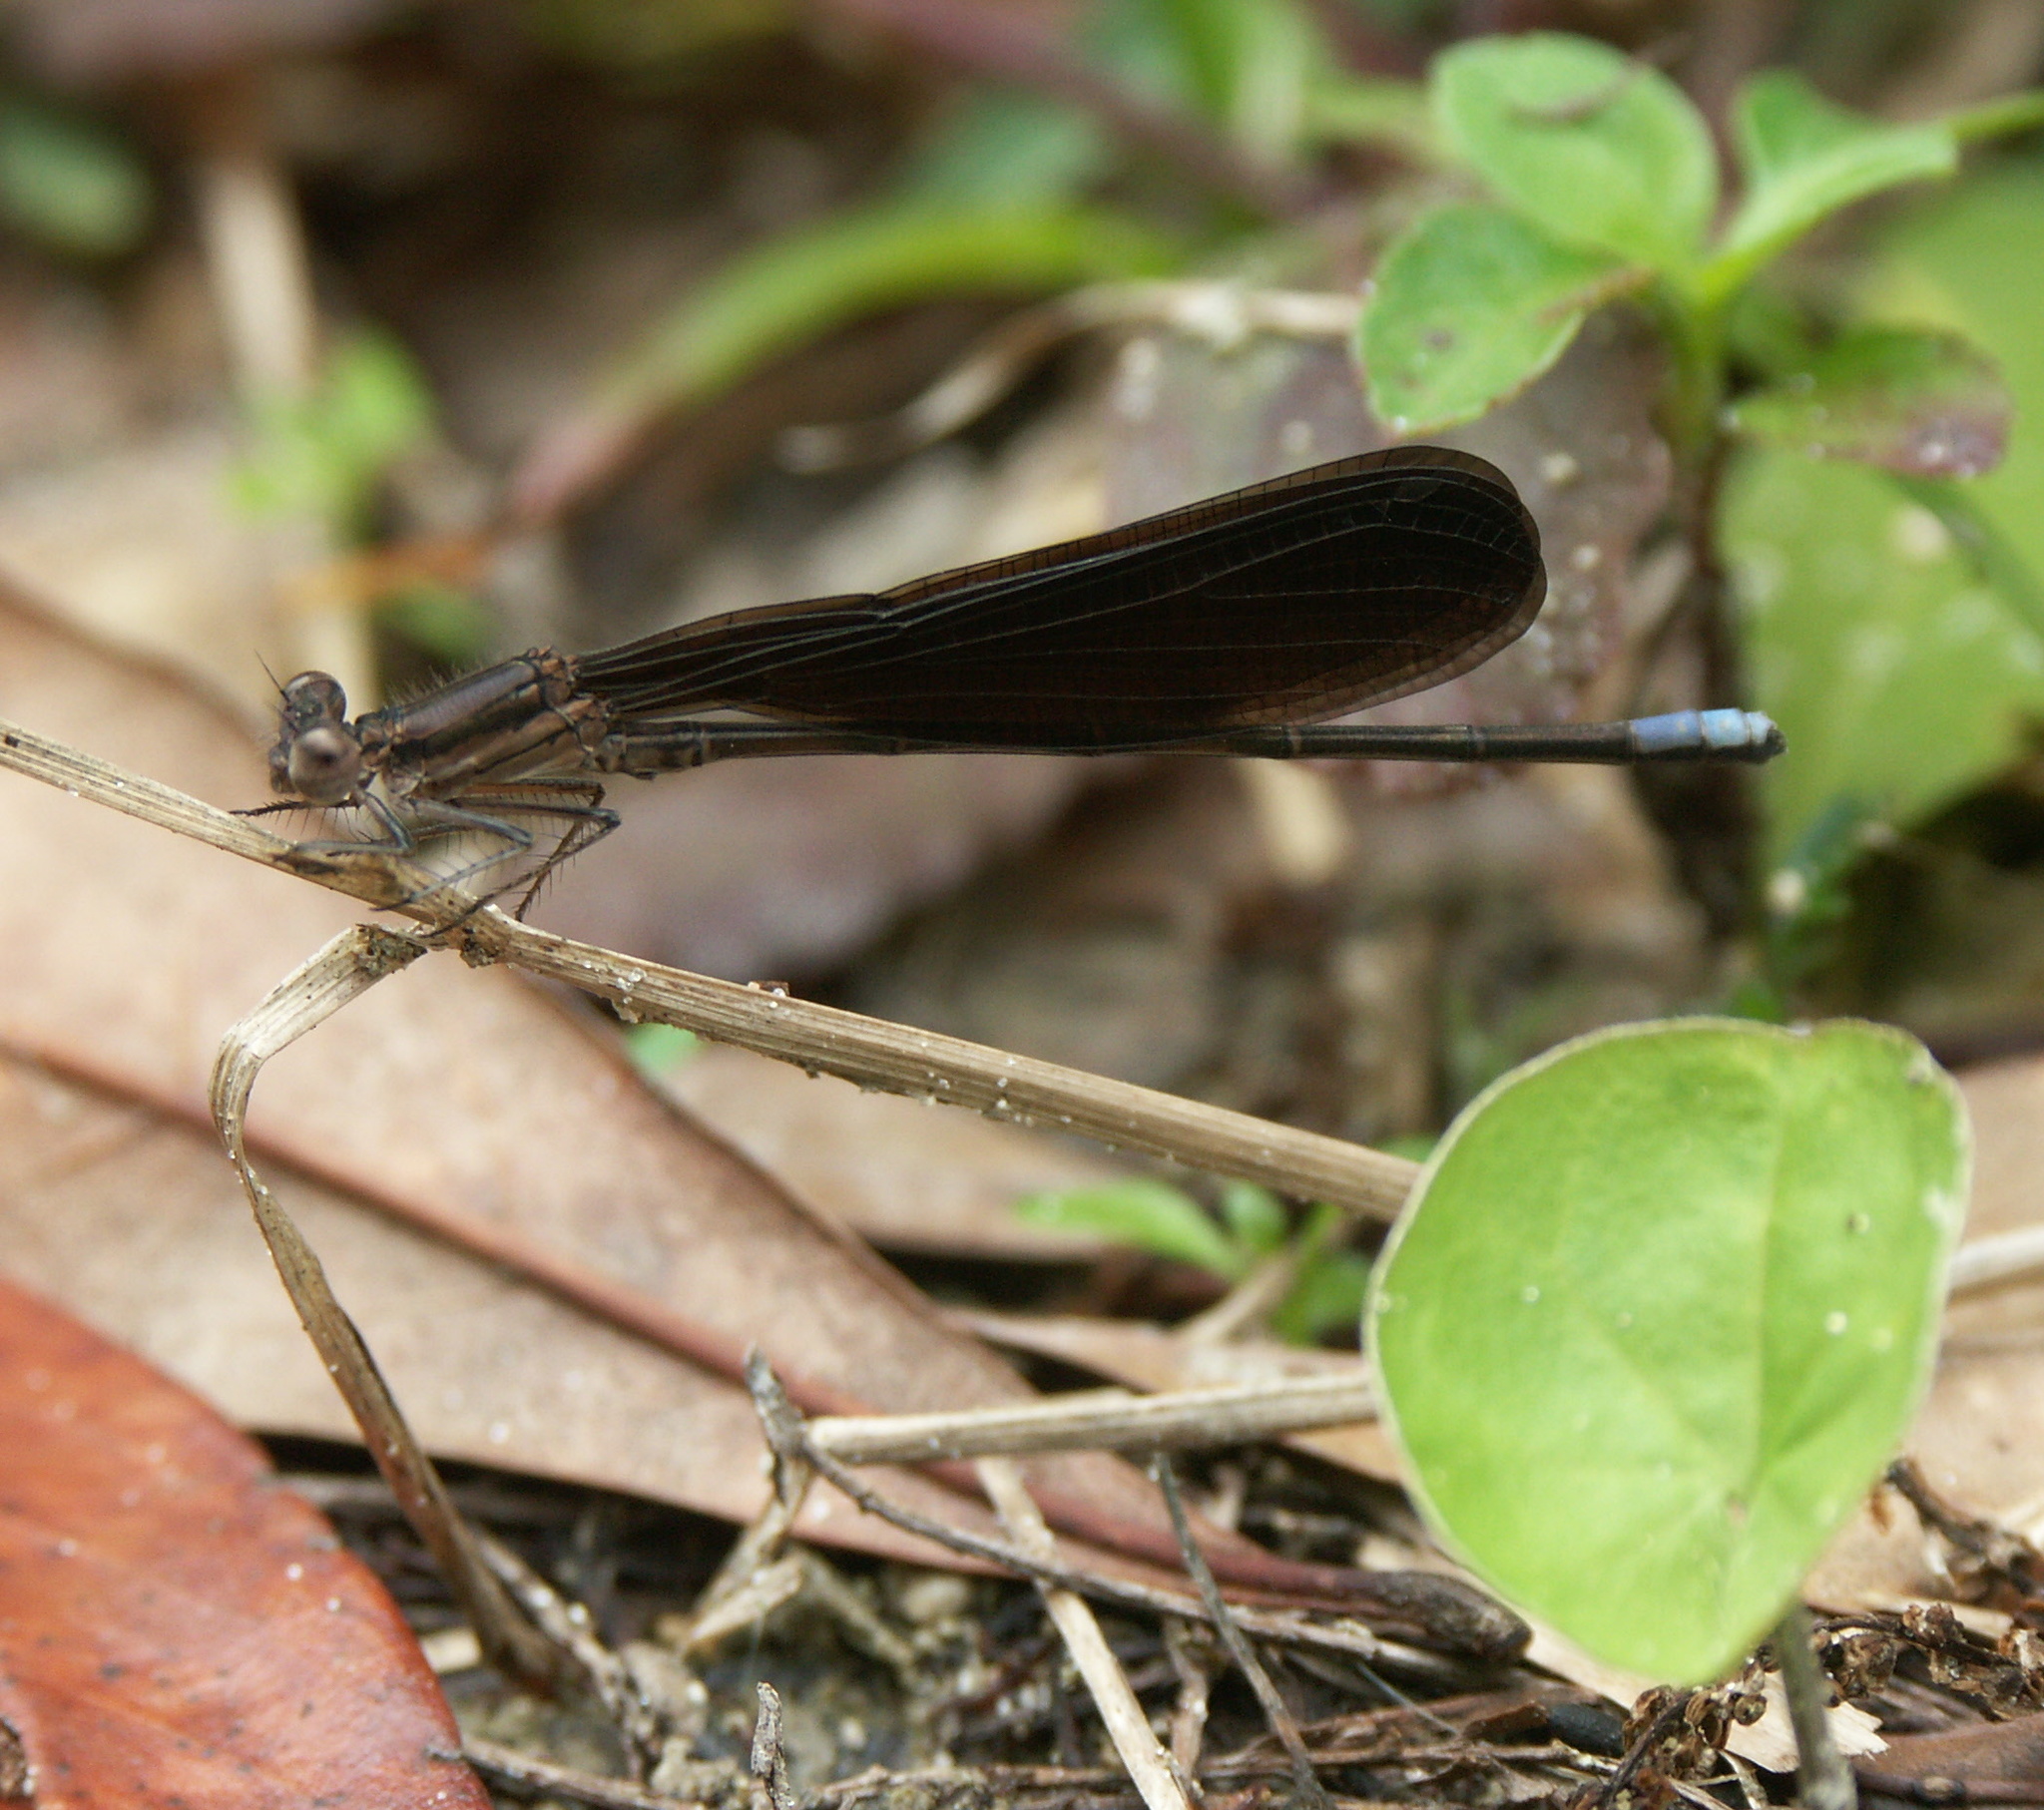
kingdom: Animalia
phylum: Arthropoda
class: Insecta
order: Odonata
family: Coenagrionidae
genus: Argia
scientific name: Argia fumipennis
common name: Variable dancer
